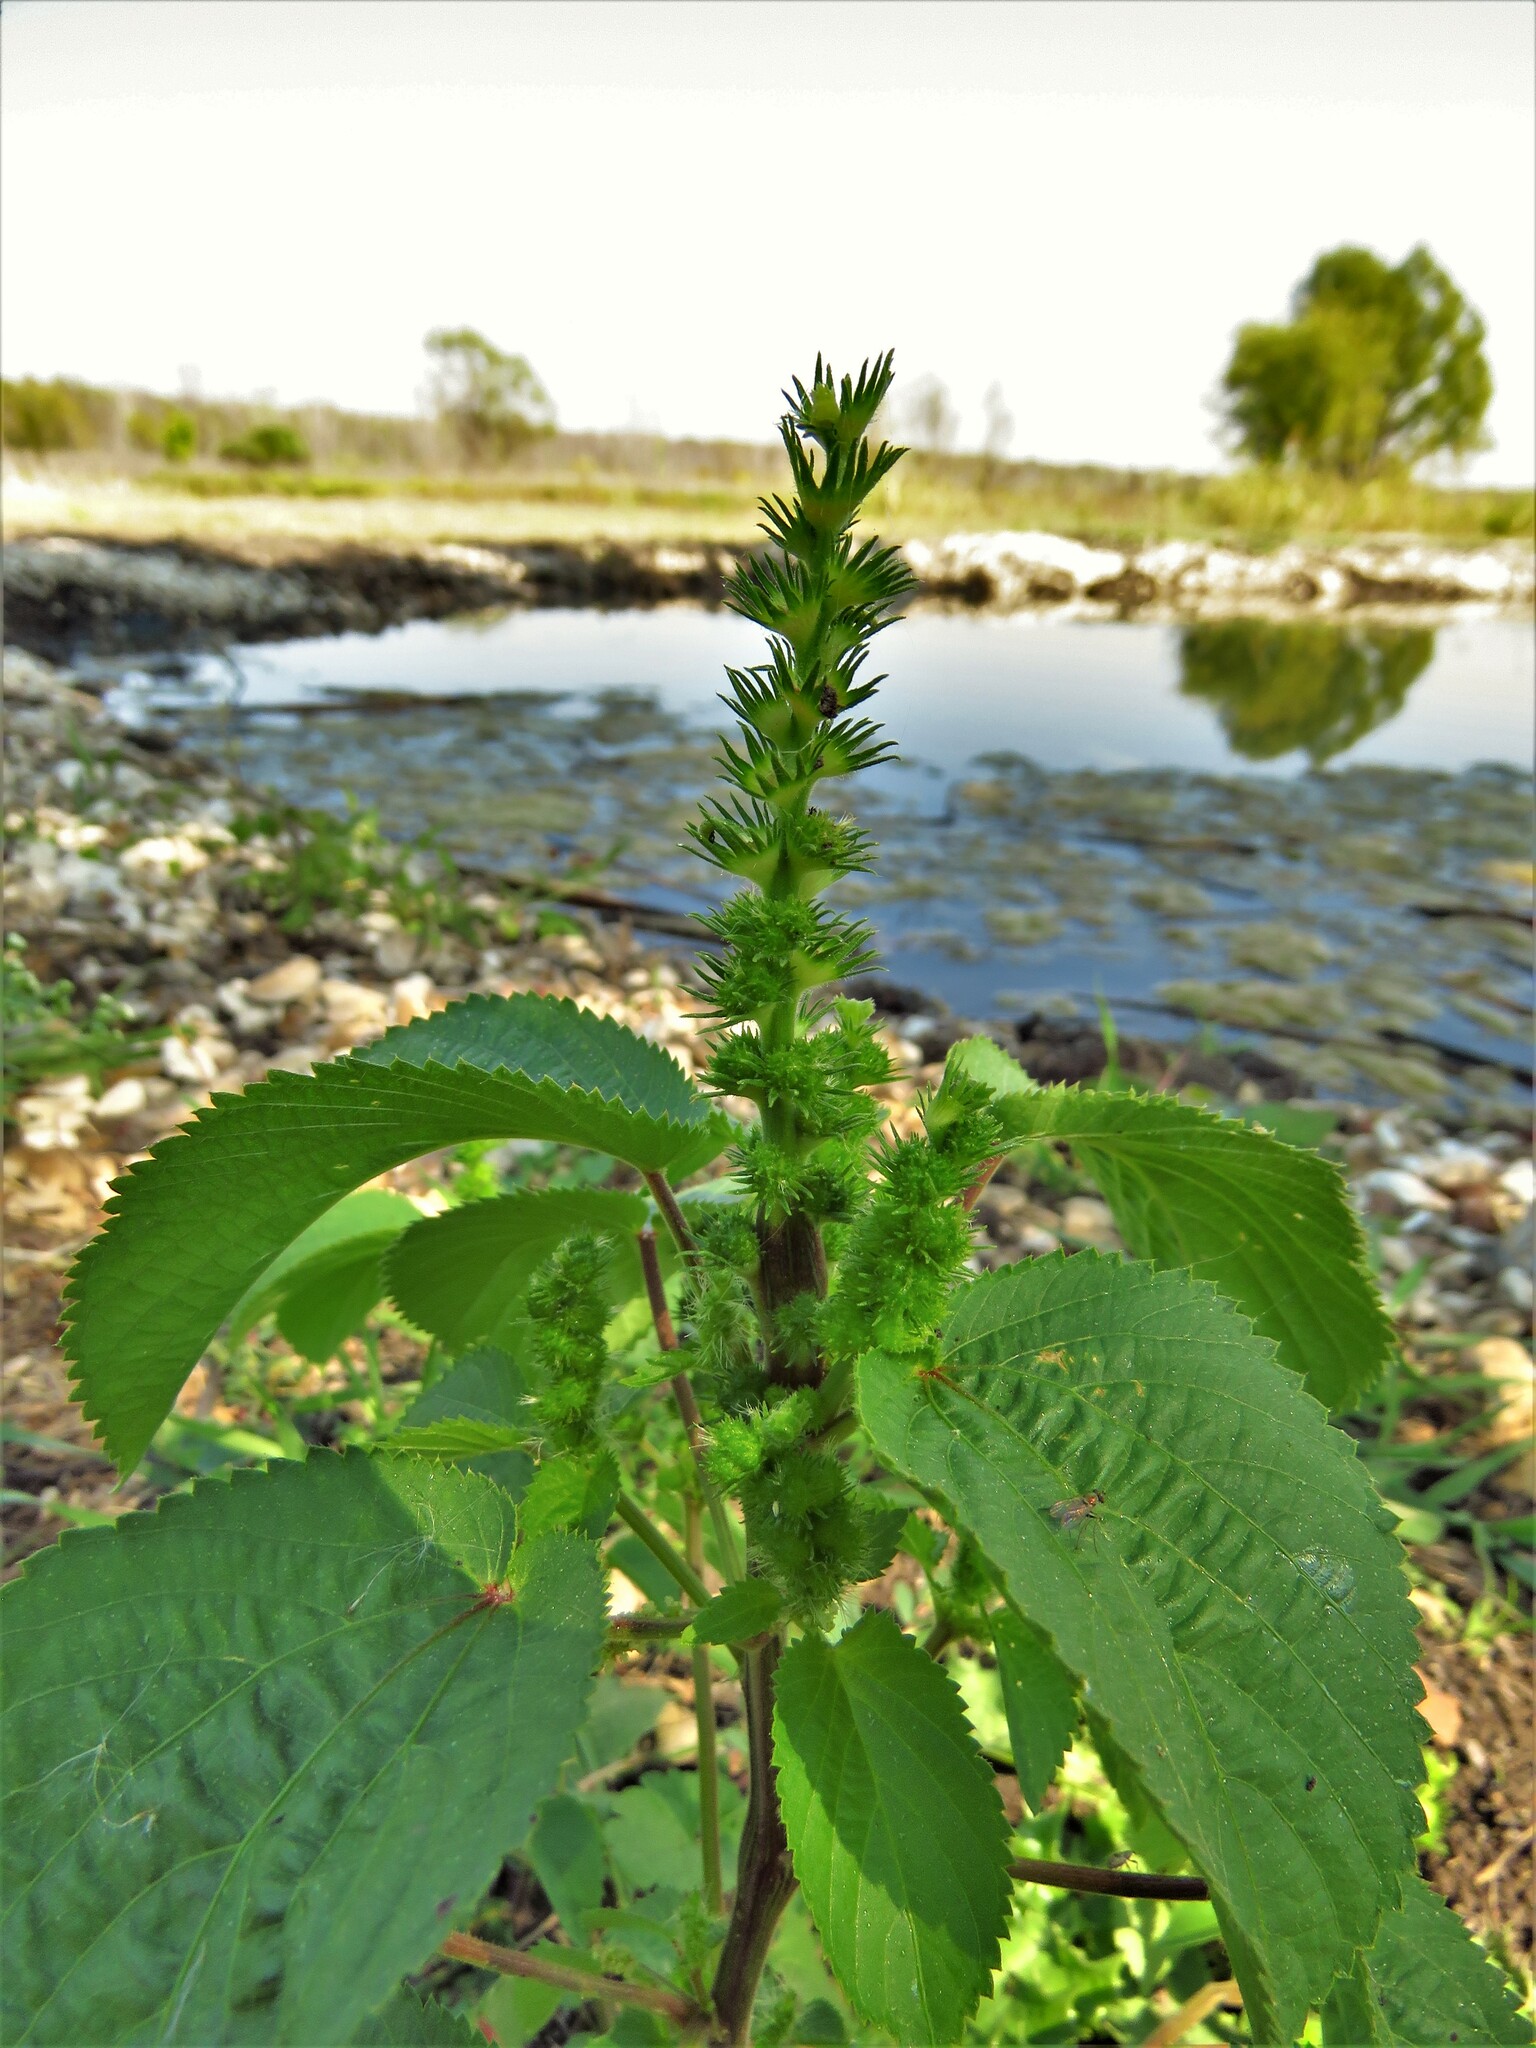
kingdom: Plantae
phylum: Tracheophyta
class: Magnoliopsida
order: Malpighiales
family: Euphorbiaceae
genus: Acalypha
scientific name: Acalypha ostryifolia
